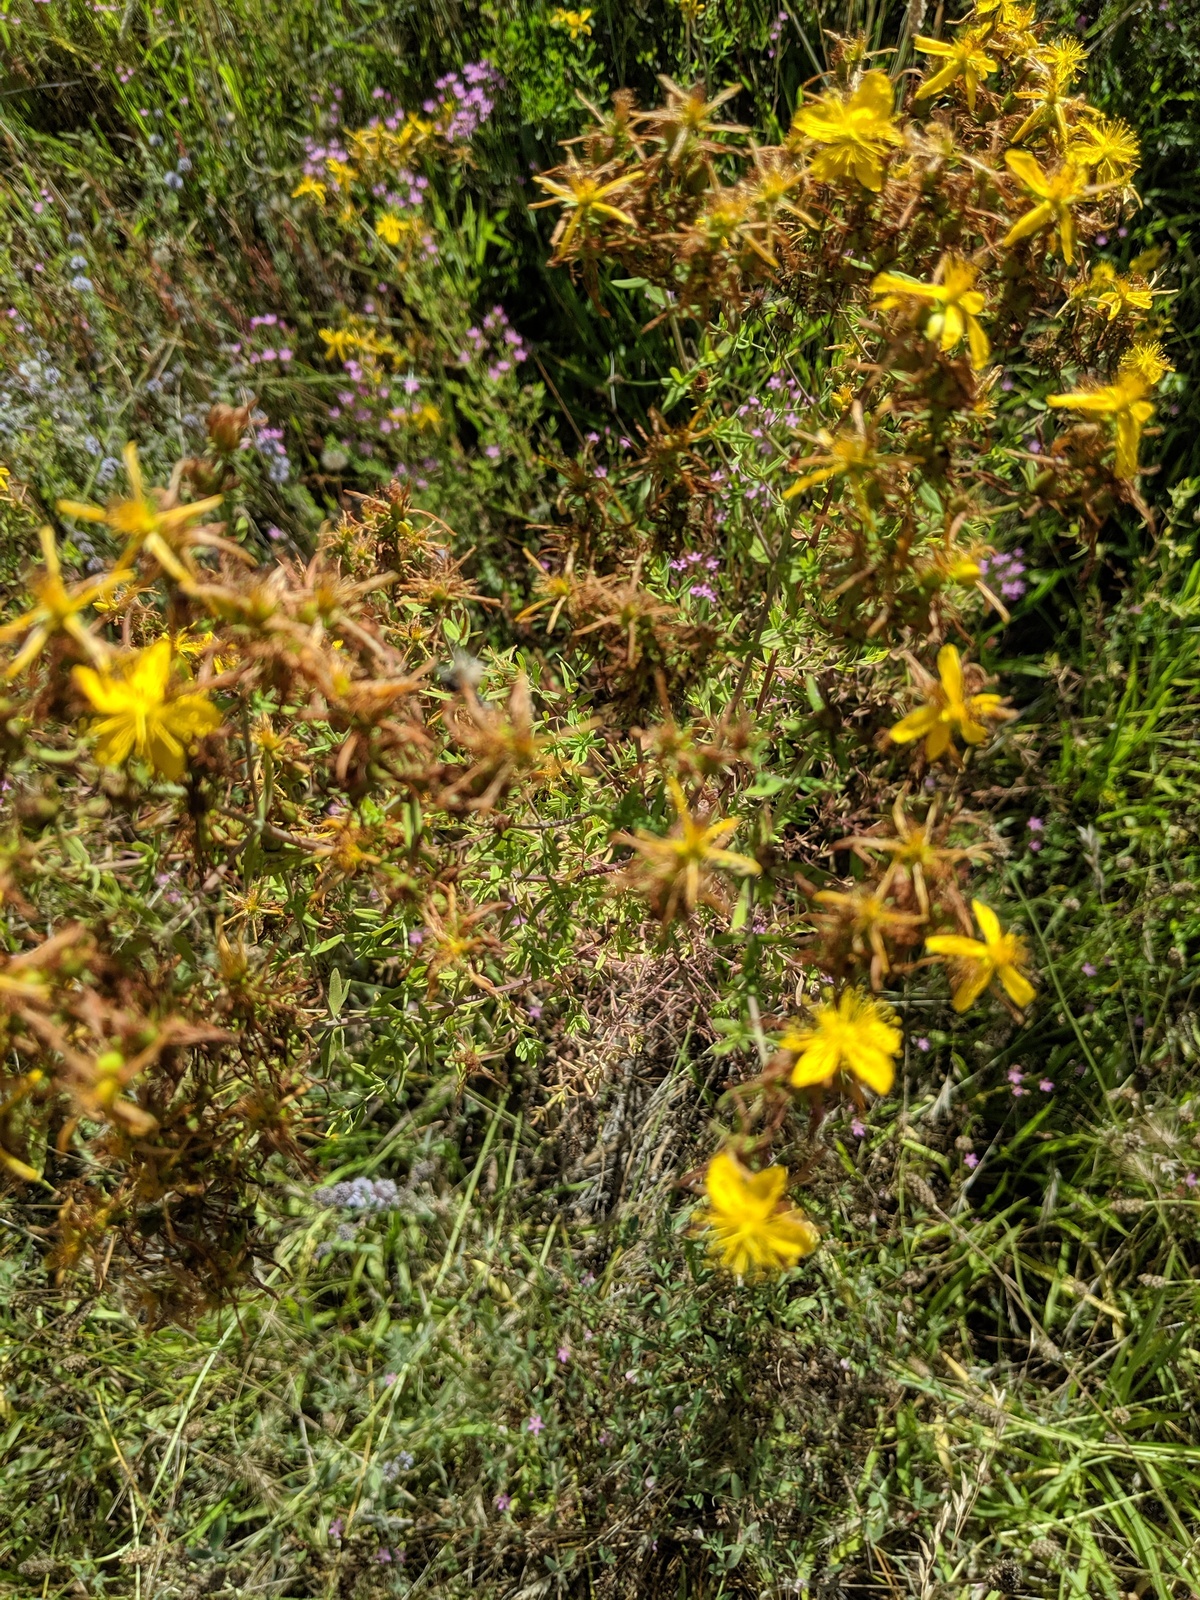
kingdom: Plantae
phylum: Tracheophyta
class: Magnoliopsida
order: Malpighiales
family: Hypericaceae
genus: Hypericum
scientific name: Hypericum perforatum
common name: Common st. johnswort
